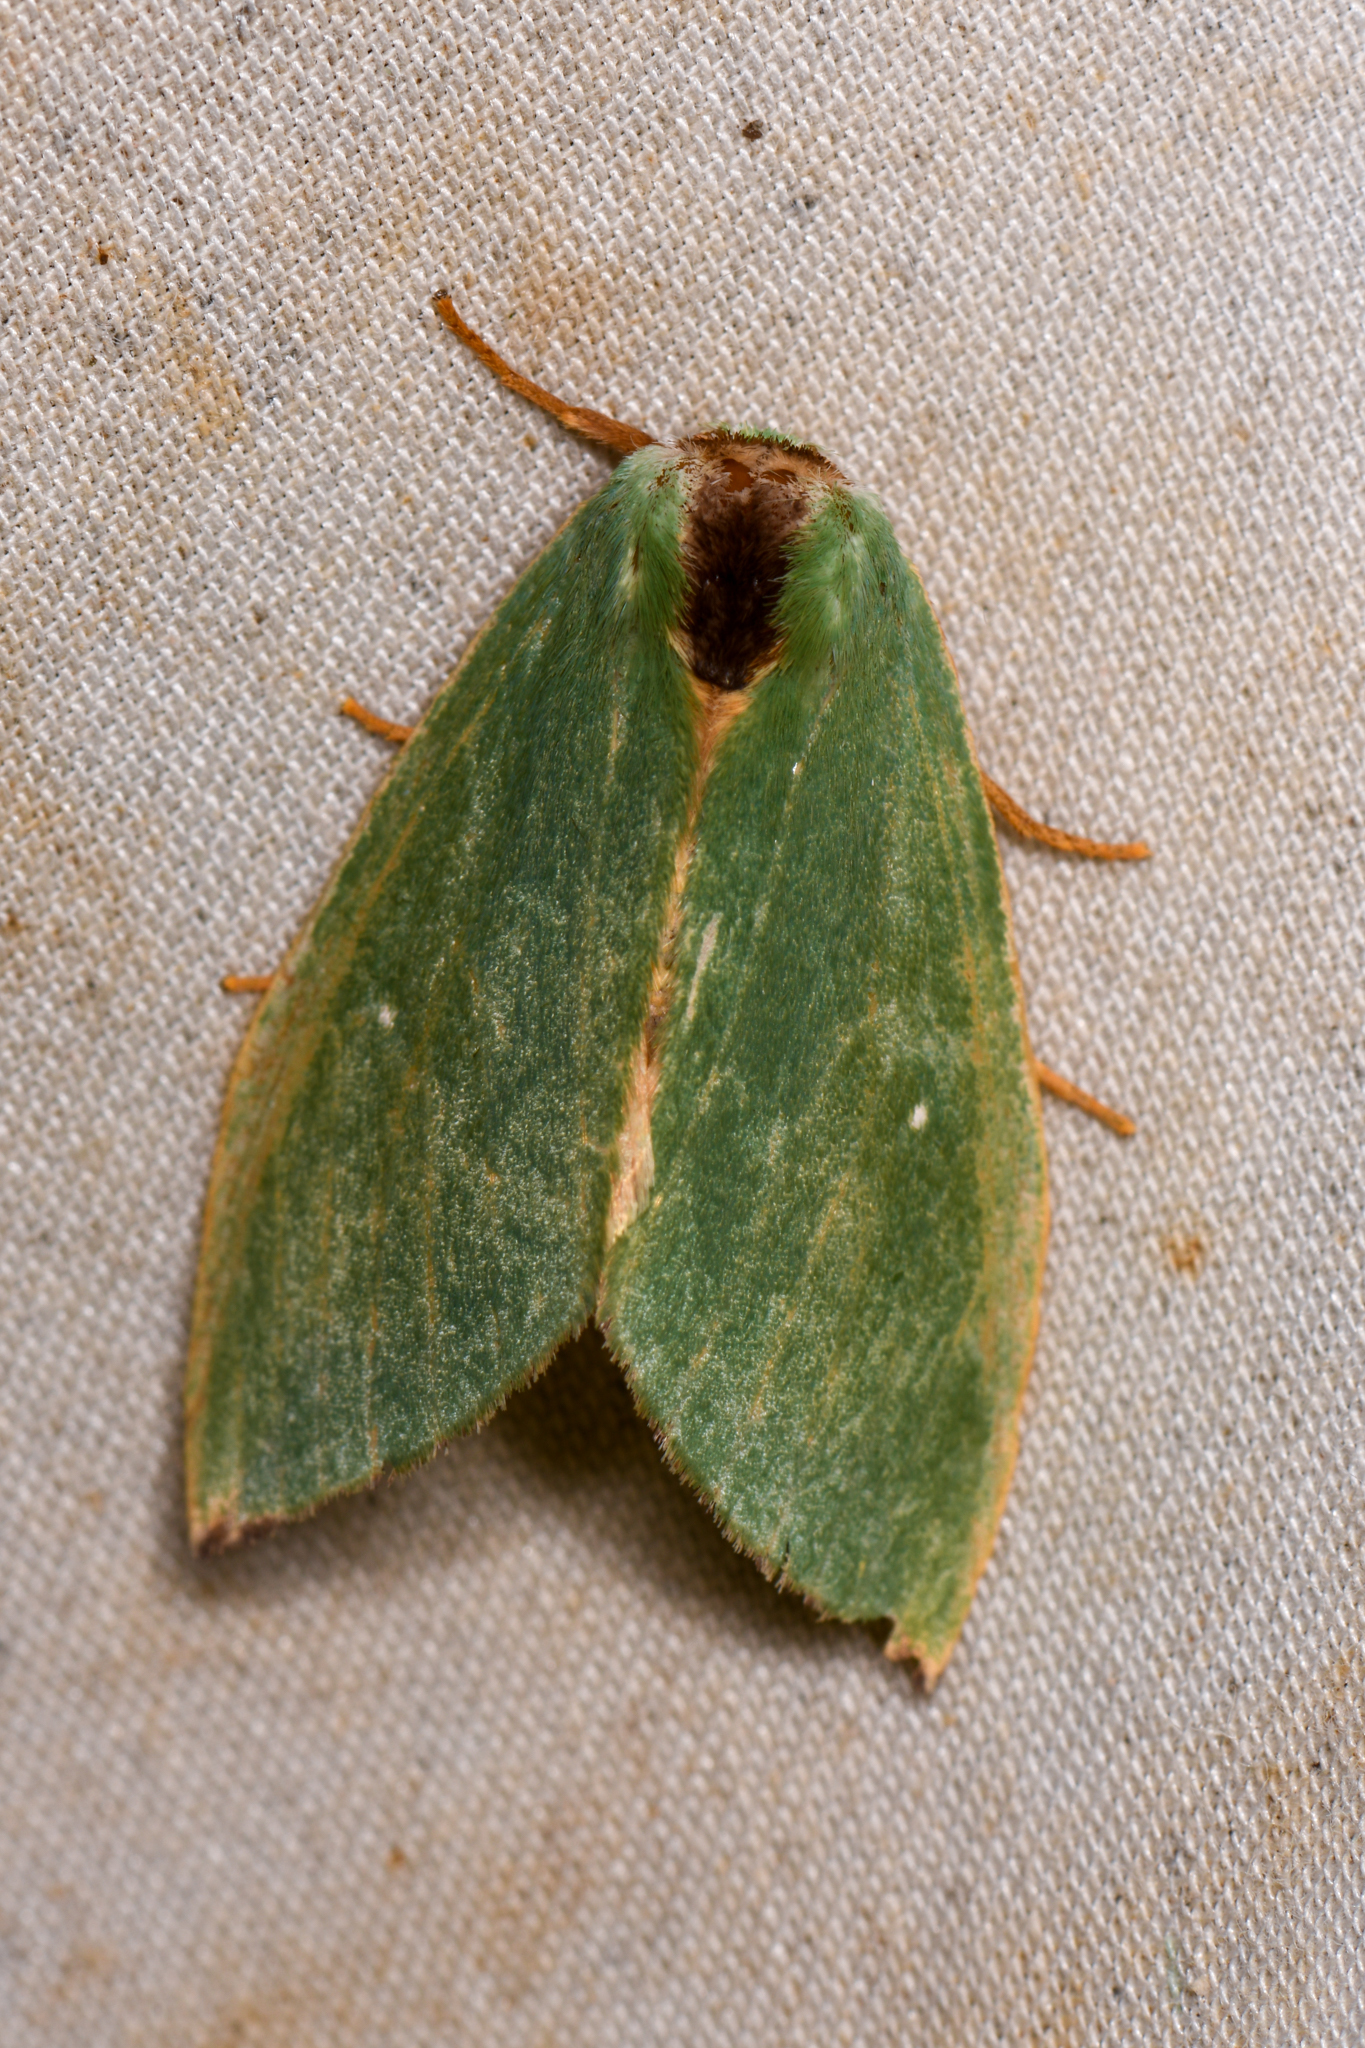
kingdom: Animalia
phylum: Arthropoda
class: Insecta
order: Lepidoptera
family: Notodontidae
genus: Rosema
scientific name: Rosema zelica
